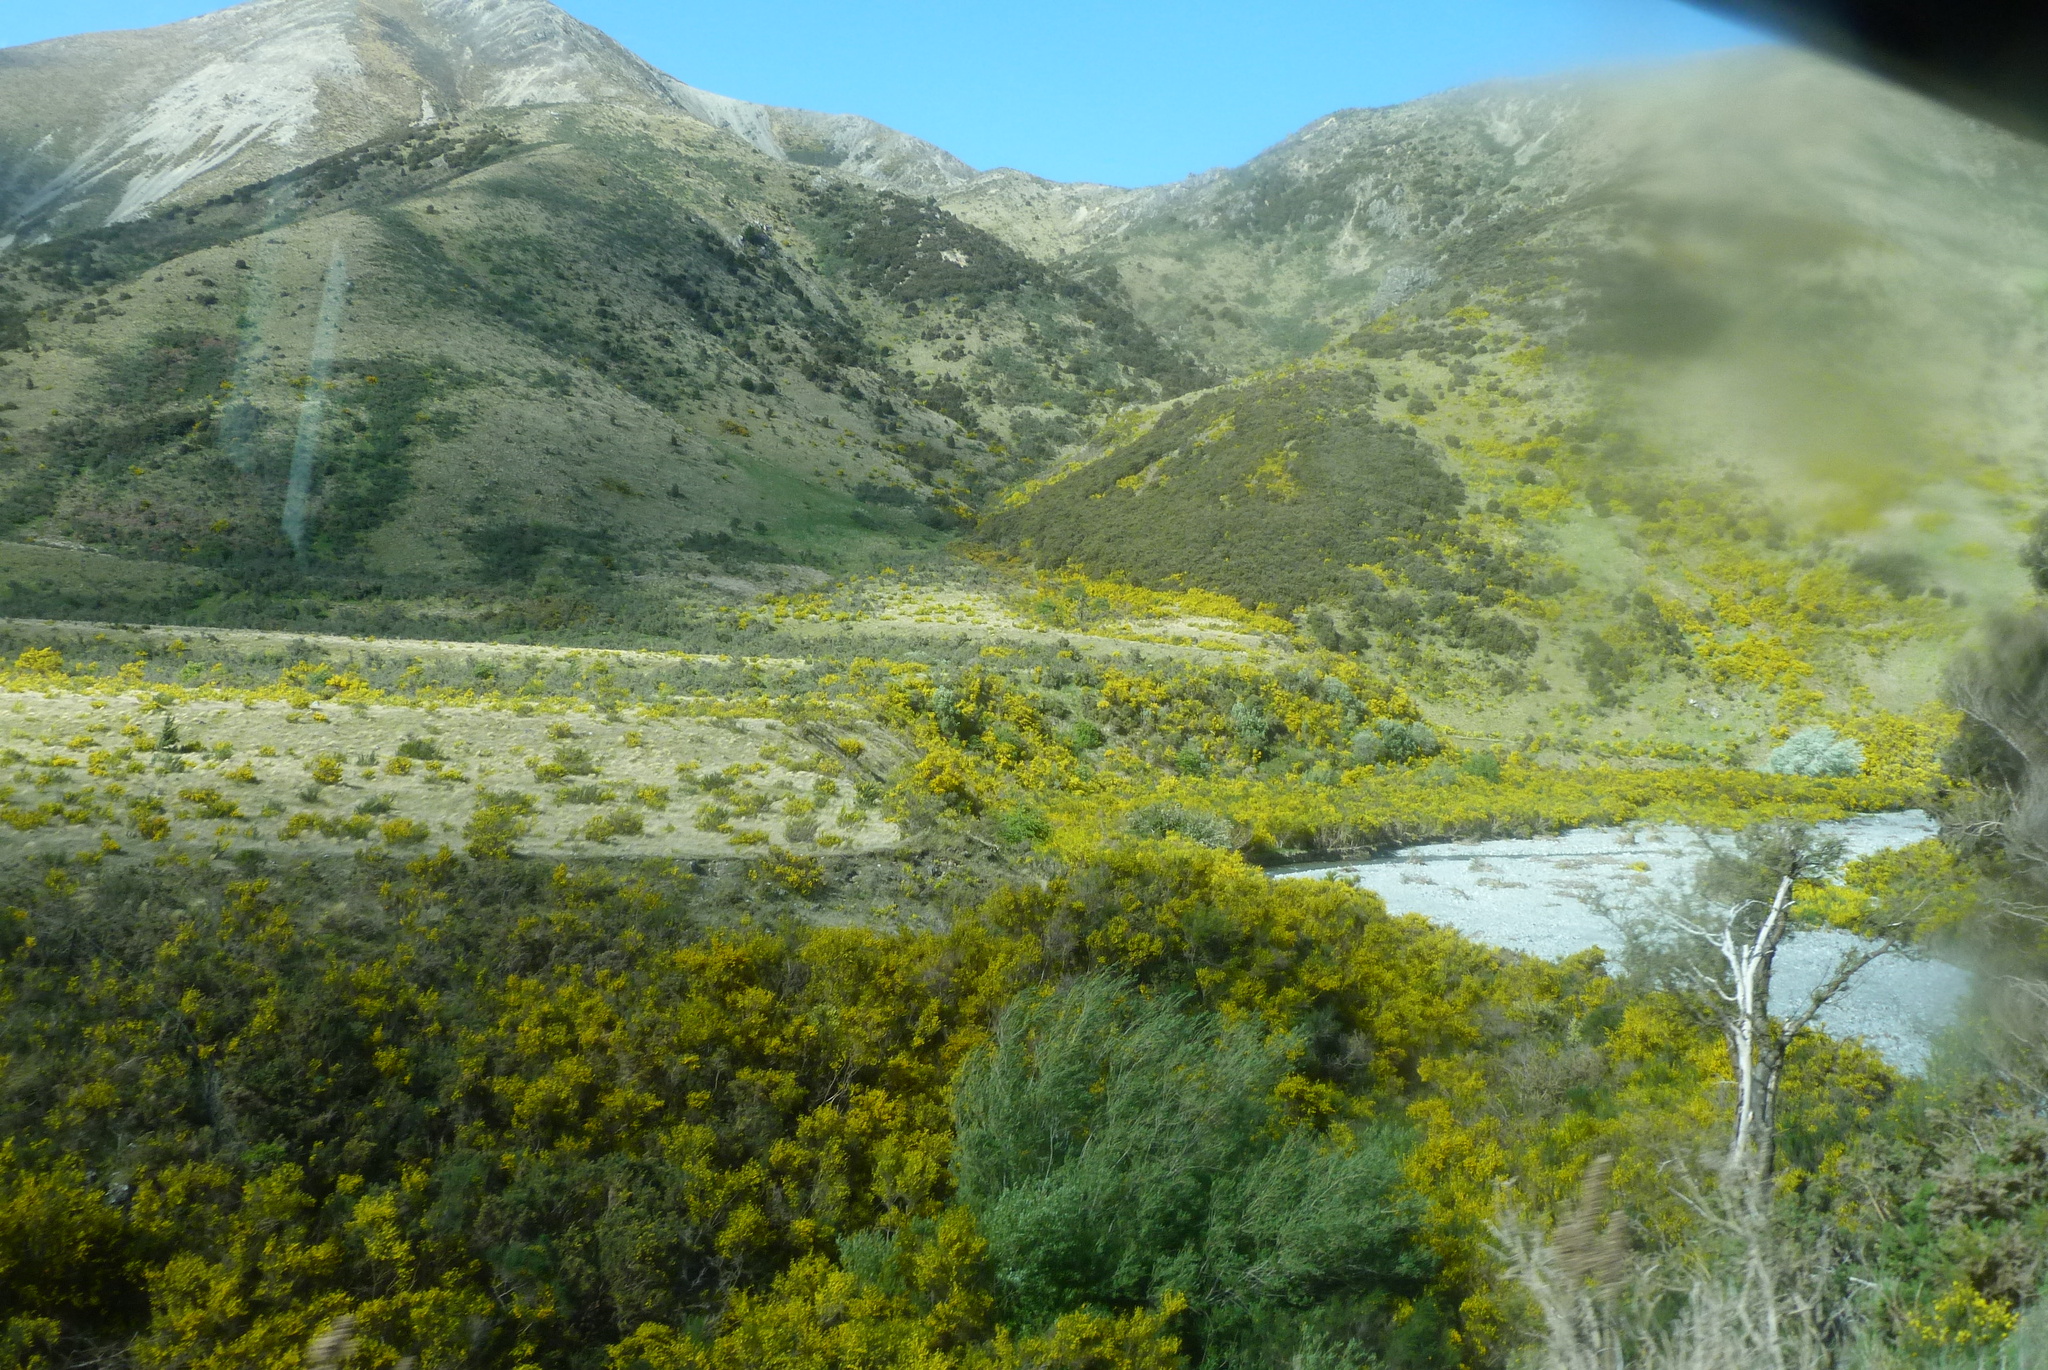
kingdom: Plantae
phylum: Tracheophyta
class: Magnoliopsida
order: Fabales
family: Fabaceae
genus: Cytisus
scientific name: Cytisus scoparius
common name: Scotch broom
